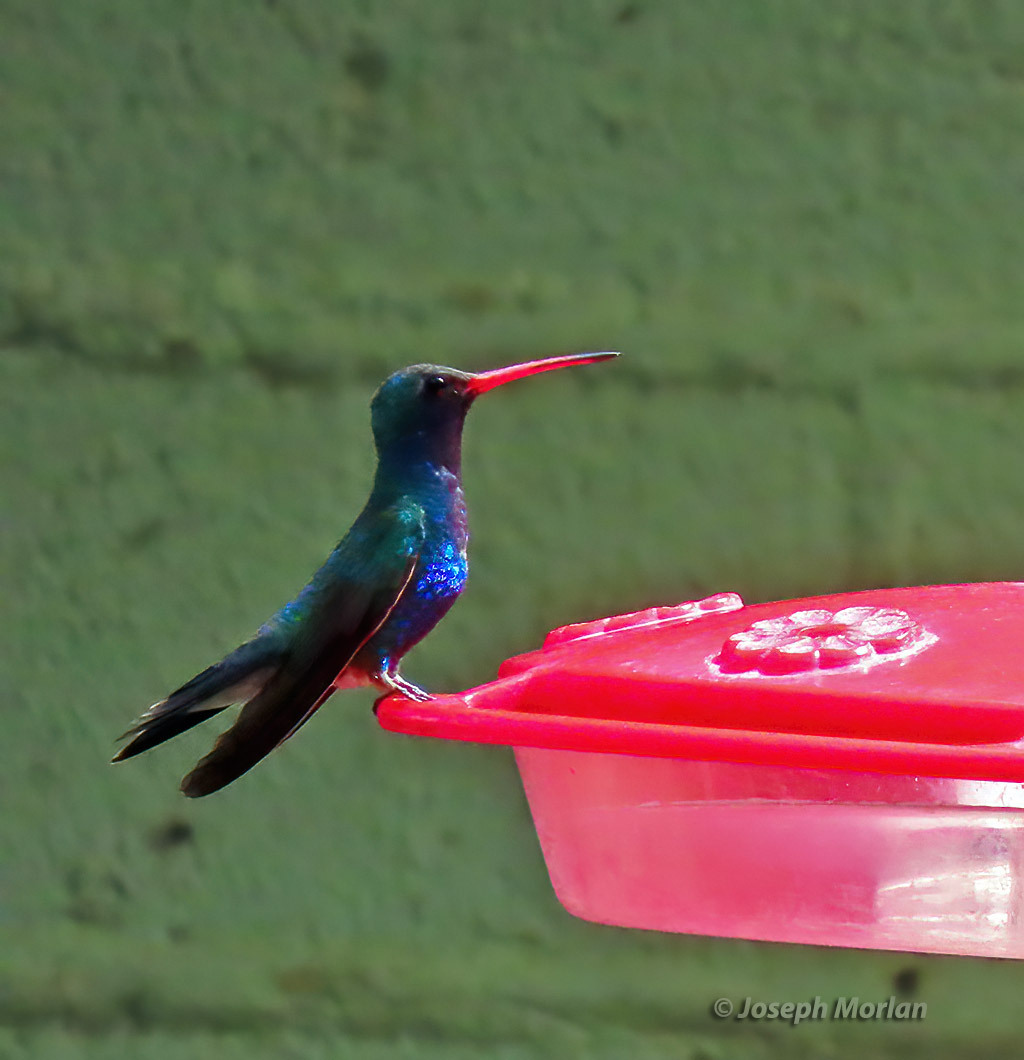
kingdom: Animalia
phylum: Chordata
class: Aves
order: Apodiformes
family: Trochilidae
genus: Cynanthus
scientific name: Cynanthus latirostris
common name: Broad-billed hummingbird
